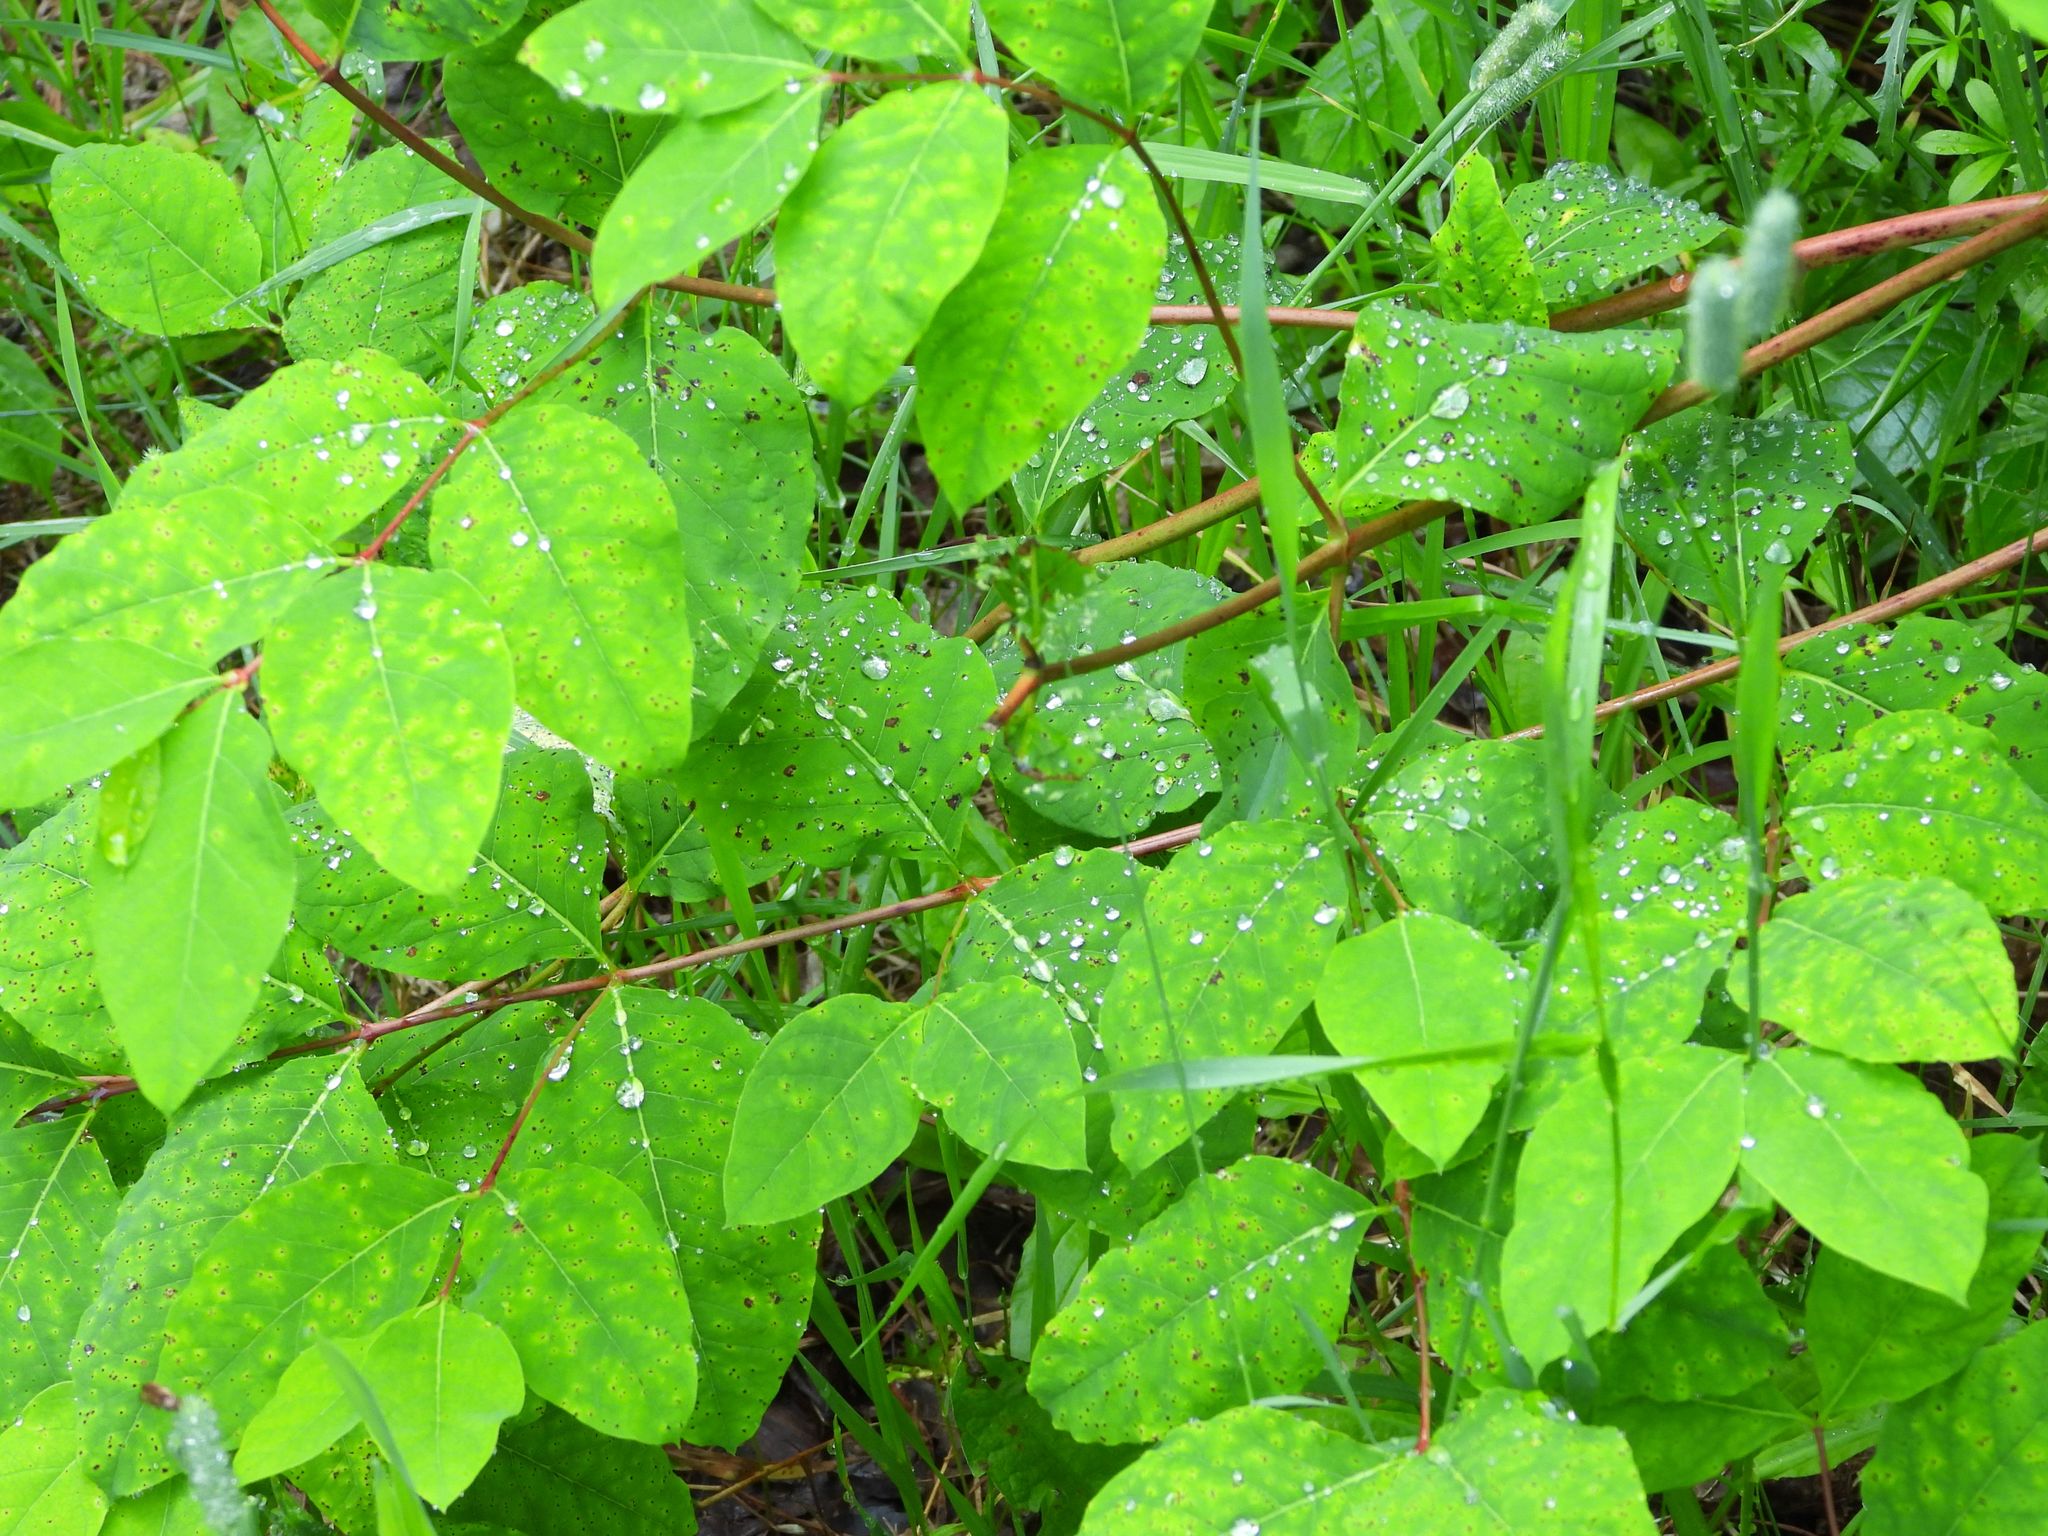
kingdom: Plantae
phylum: Tracheophyta
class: Magnoliopsida
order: Gentianales
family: Apocynaceae
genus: Apocynum
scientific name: Apocynum androsaemifolium
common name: Spreading dogbane
